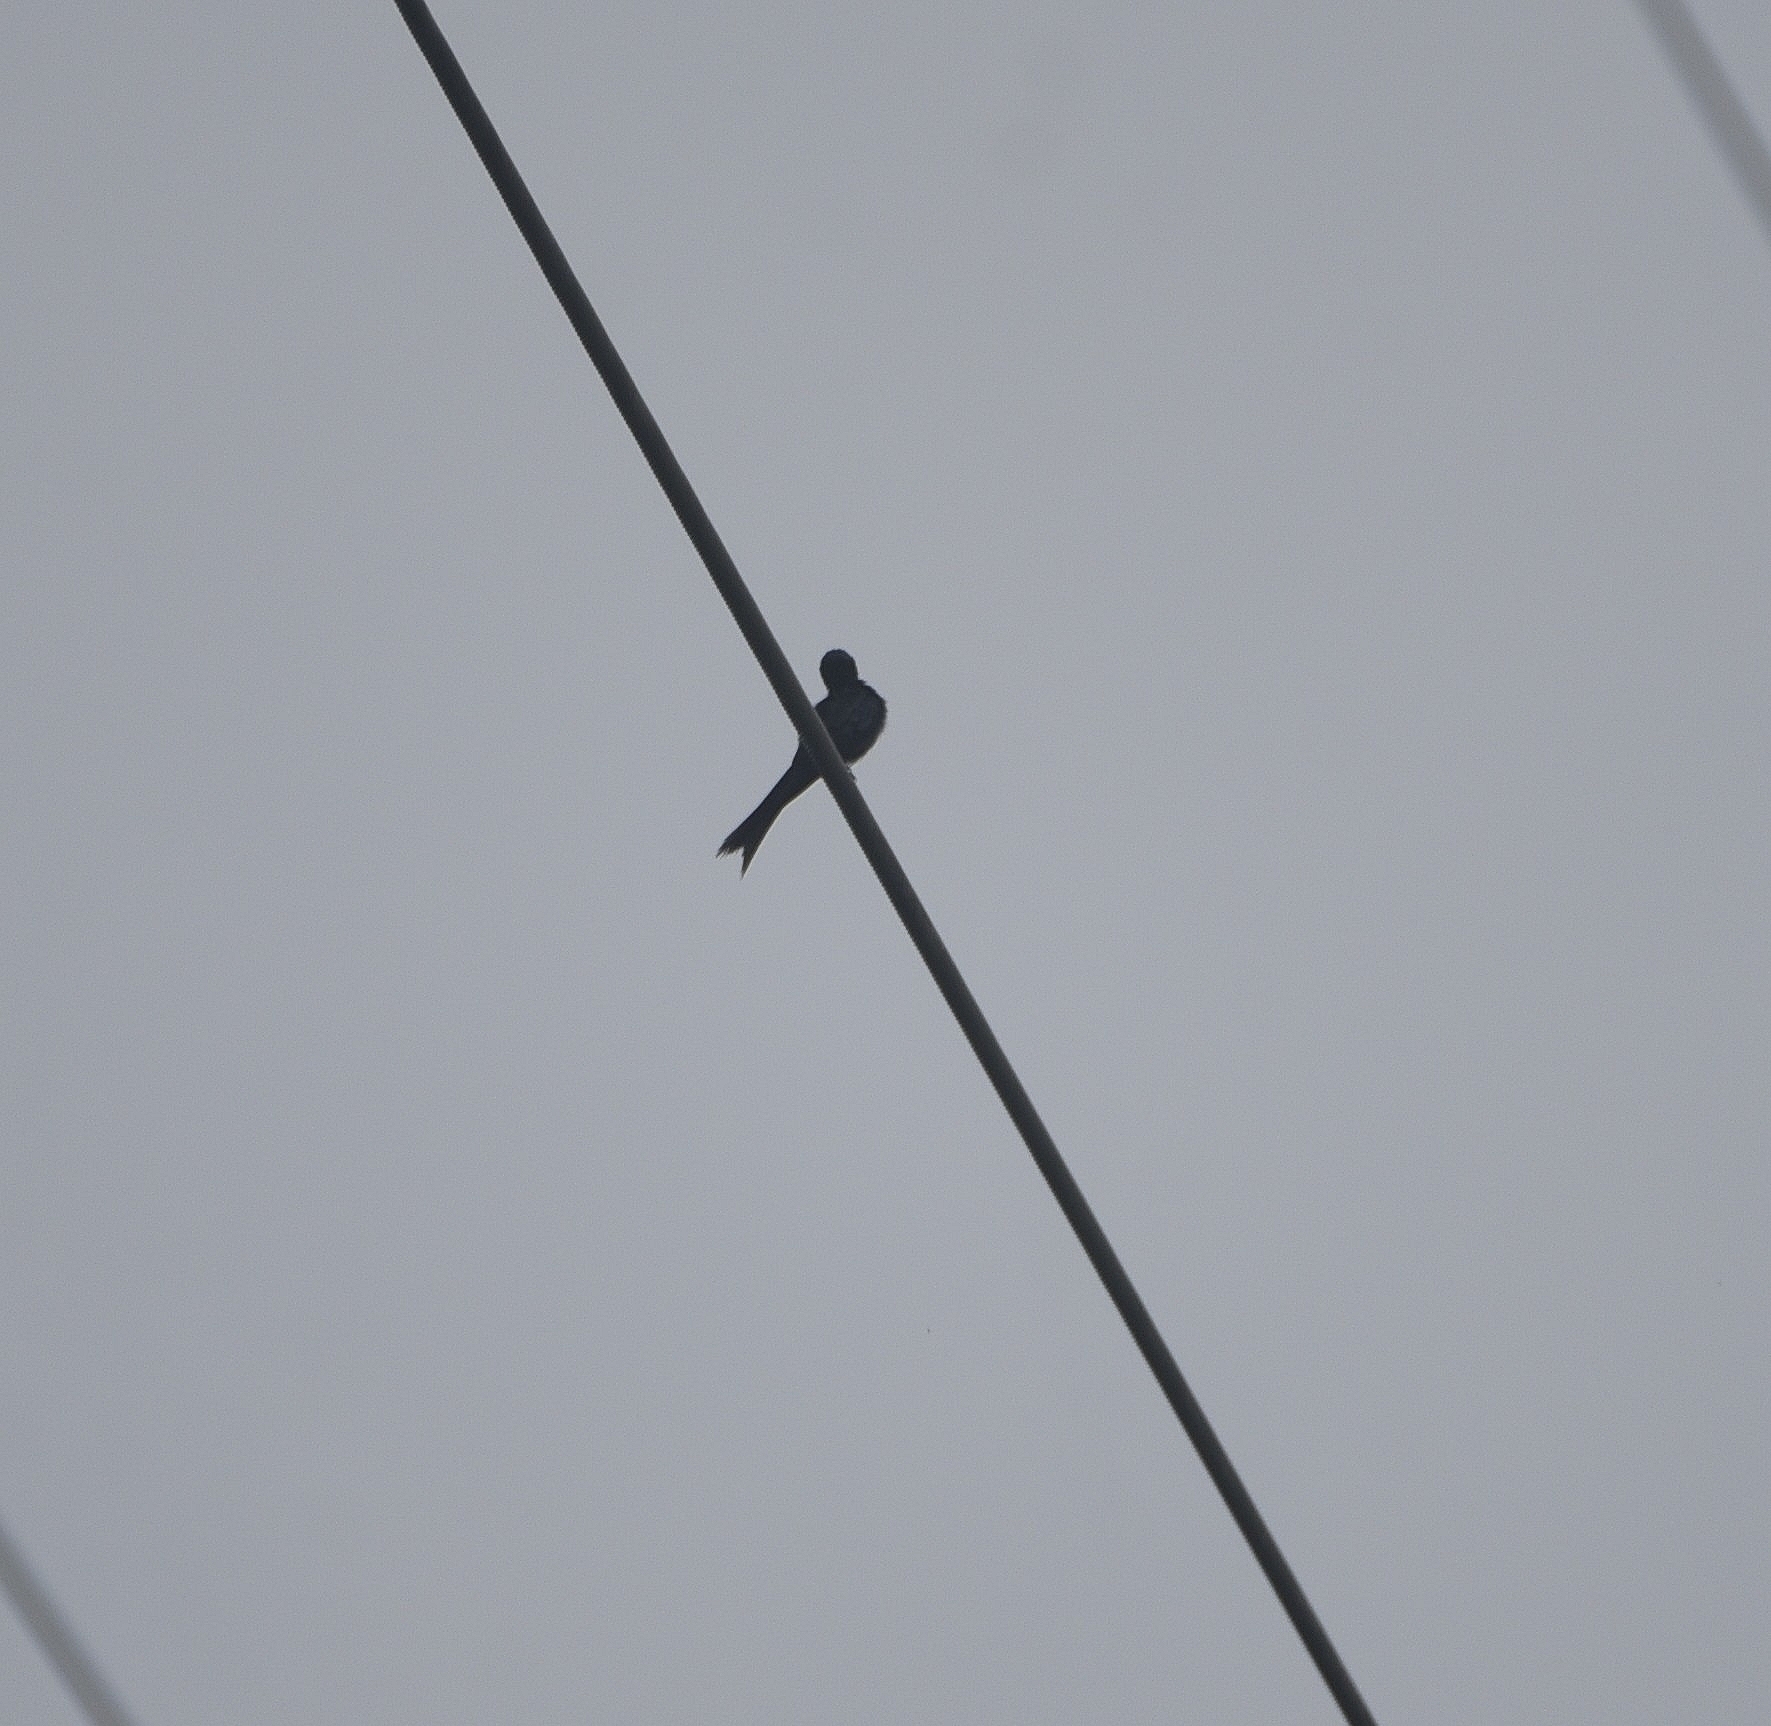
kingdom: Animalia
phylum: Chordata
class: Aves
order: Passeriformes
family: Dicruridae
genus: Dicrurus
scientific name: Dicrurus macrocercus
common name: Black drongo
